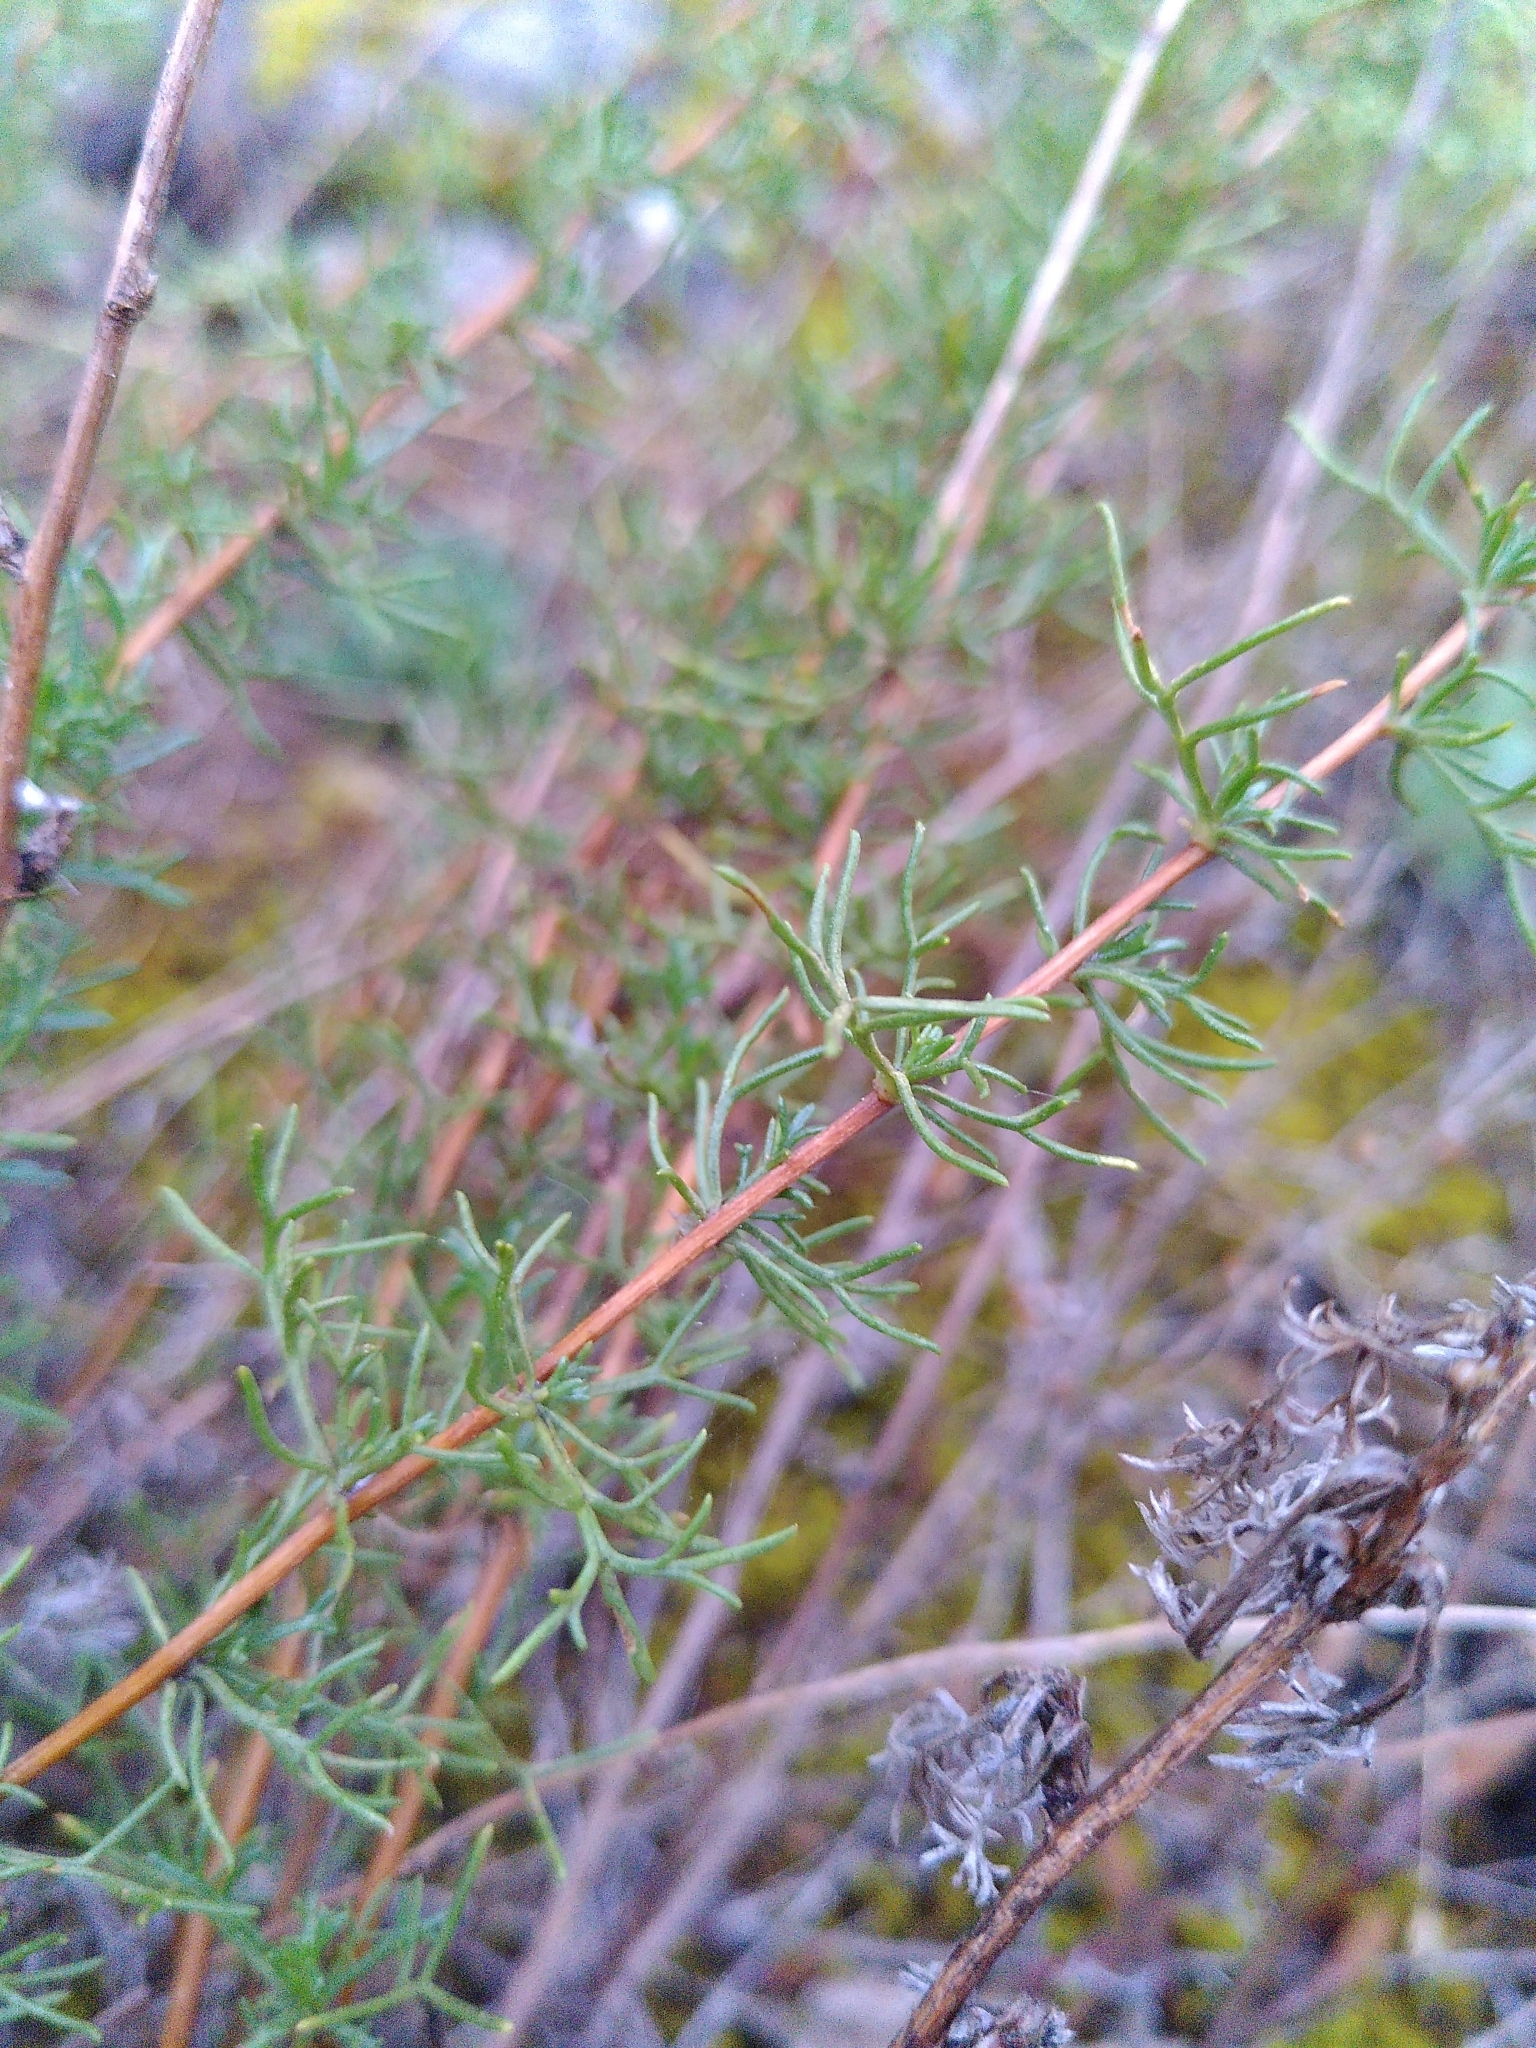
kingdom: Plantae
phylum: Tracheophyta
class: Magnoliopsida
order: Asterales
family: Asteraceae
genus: Artemisia
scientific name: Artemisia campestris
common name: Field wormwood
